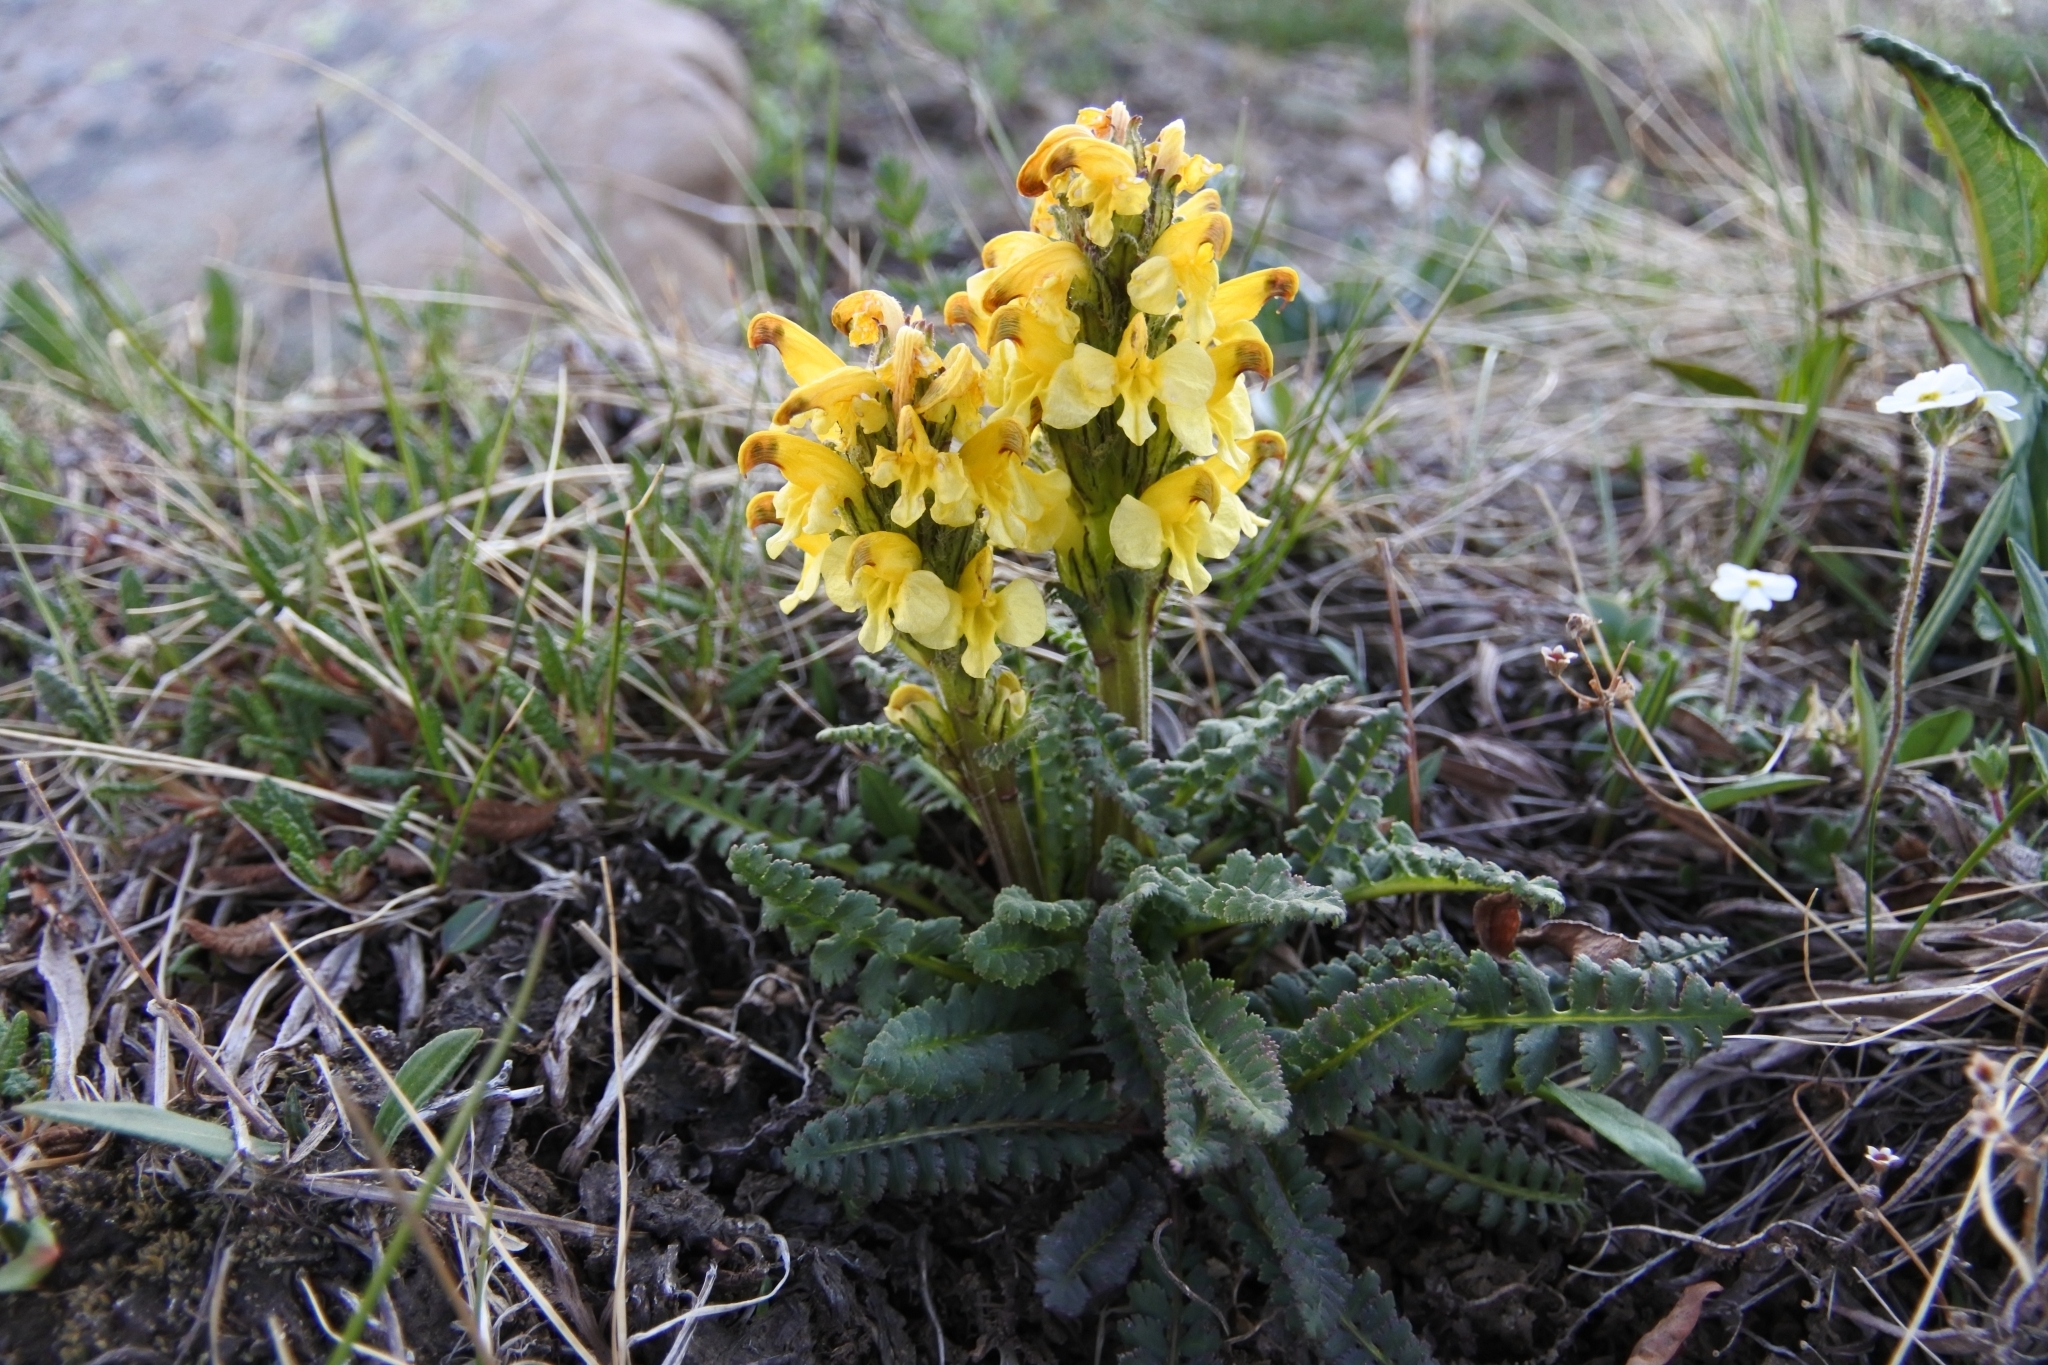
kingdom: Plantae
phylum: Tracheophyta
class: Magnoliopsida
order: Lamiales
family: Orobanchaceae
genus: Pedicularis
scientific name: Pedicularis oederi
